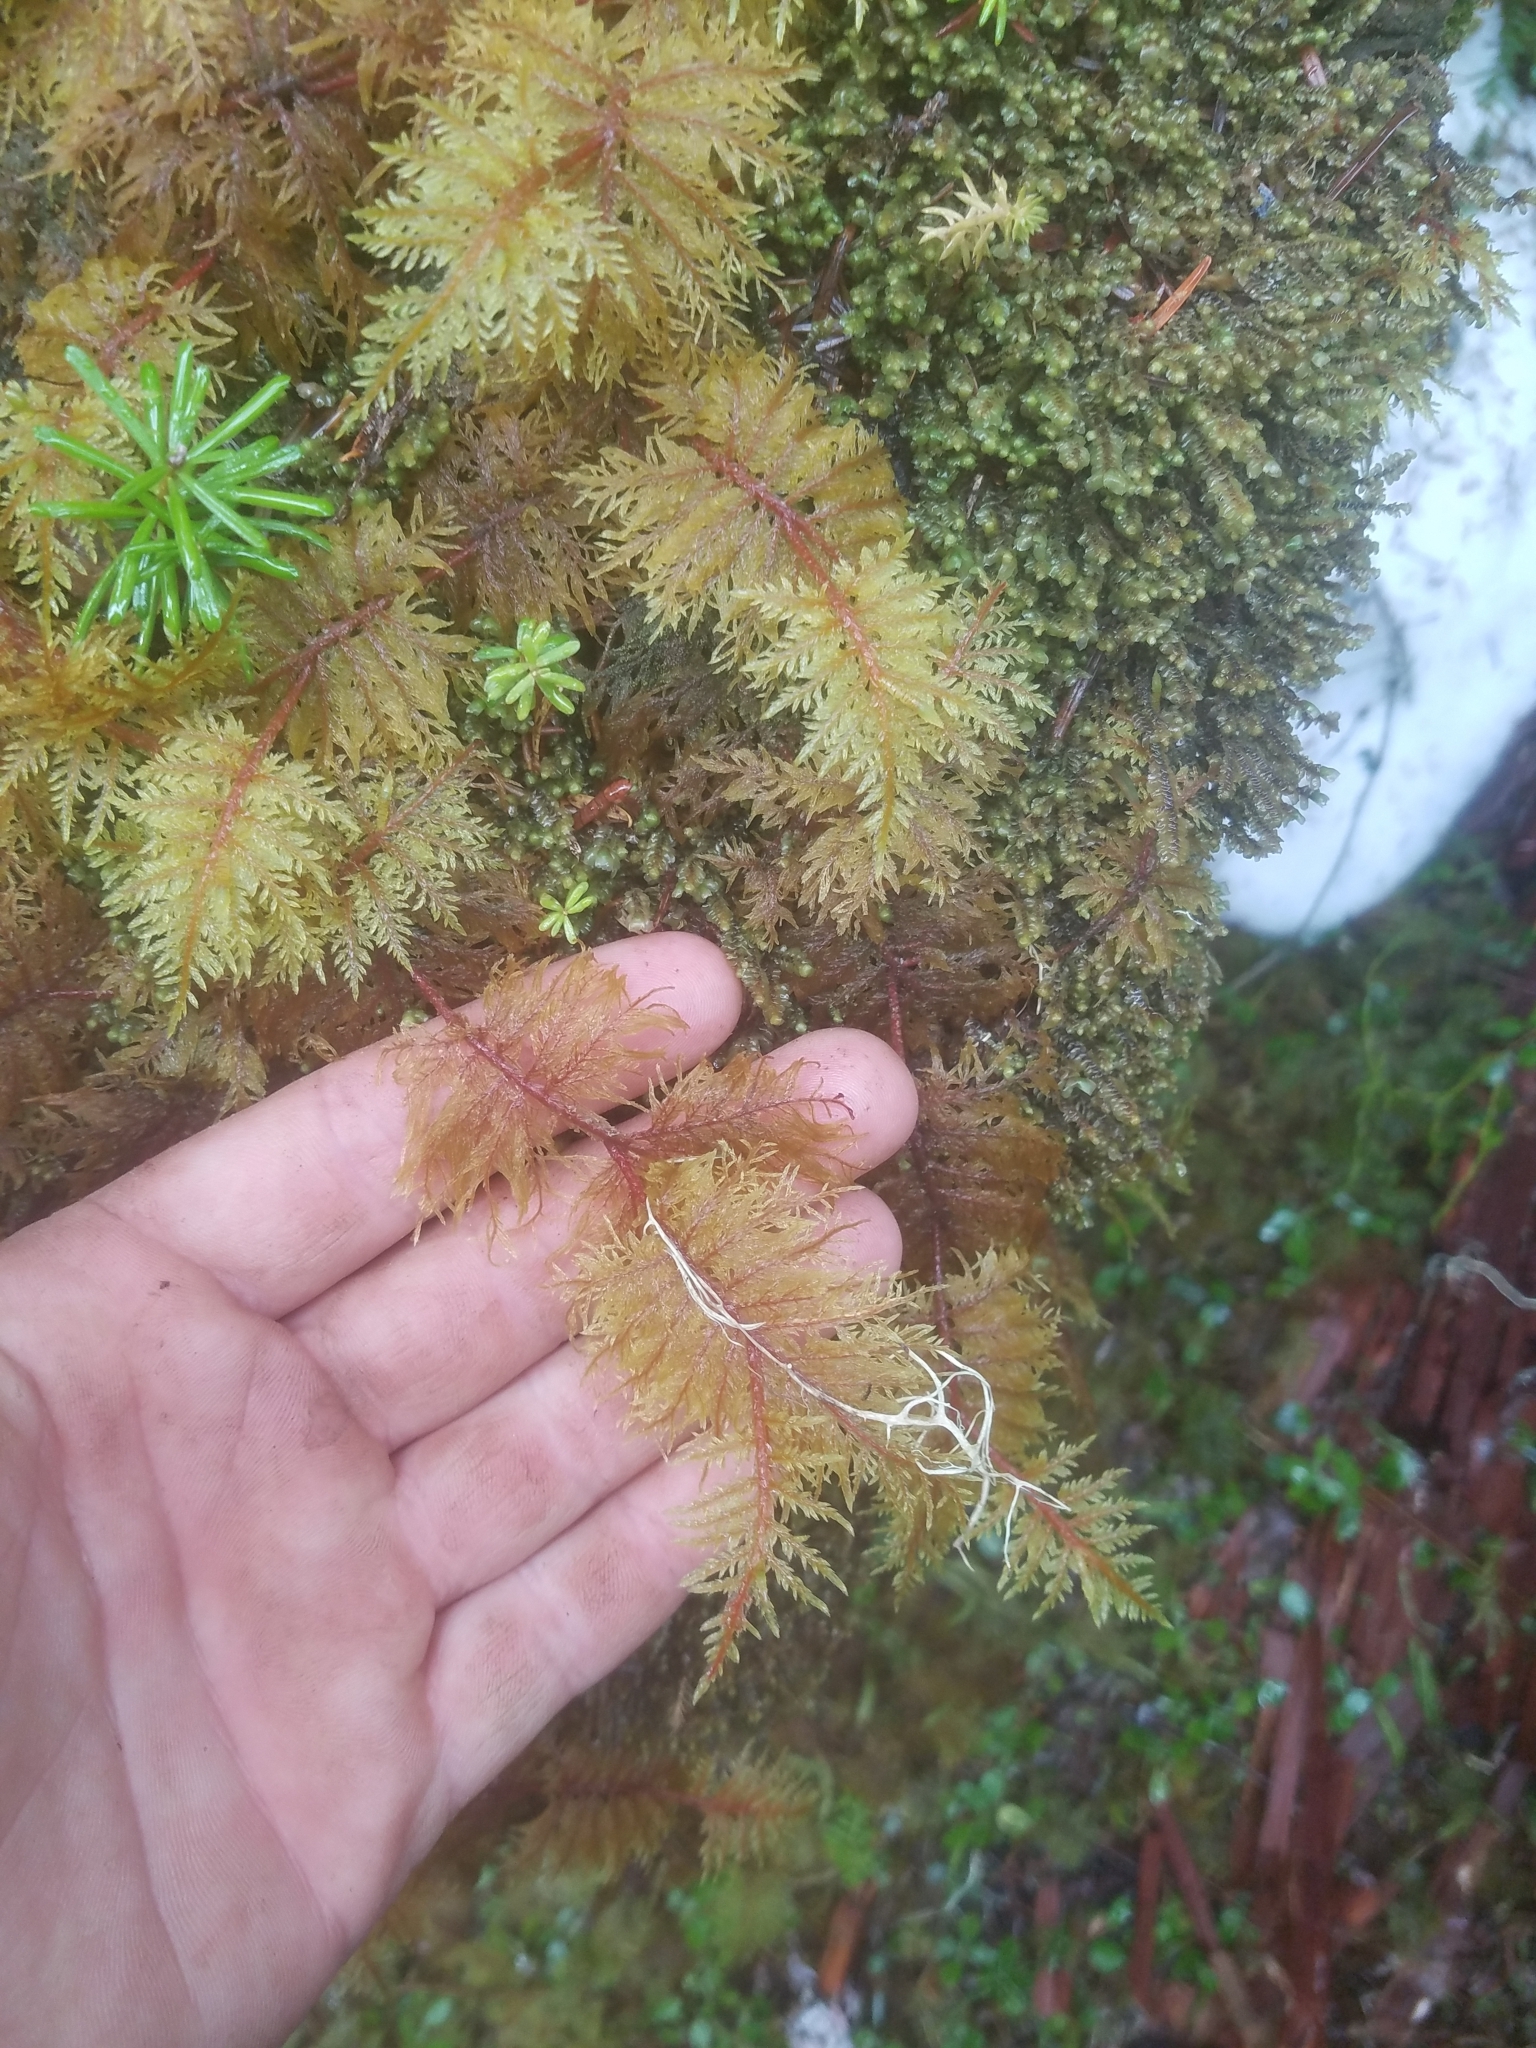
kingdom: Plantae
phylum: Bryophyta
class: Bryopsida
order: Hypnales
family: Hylocomiaceae
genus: Hylocomium
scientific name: Hylocomium splendens
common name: Stairstep moss
